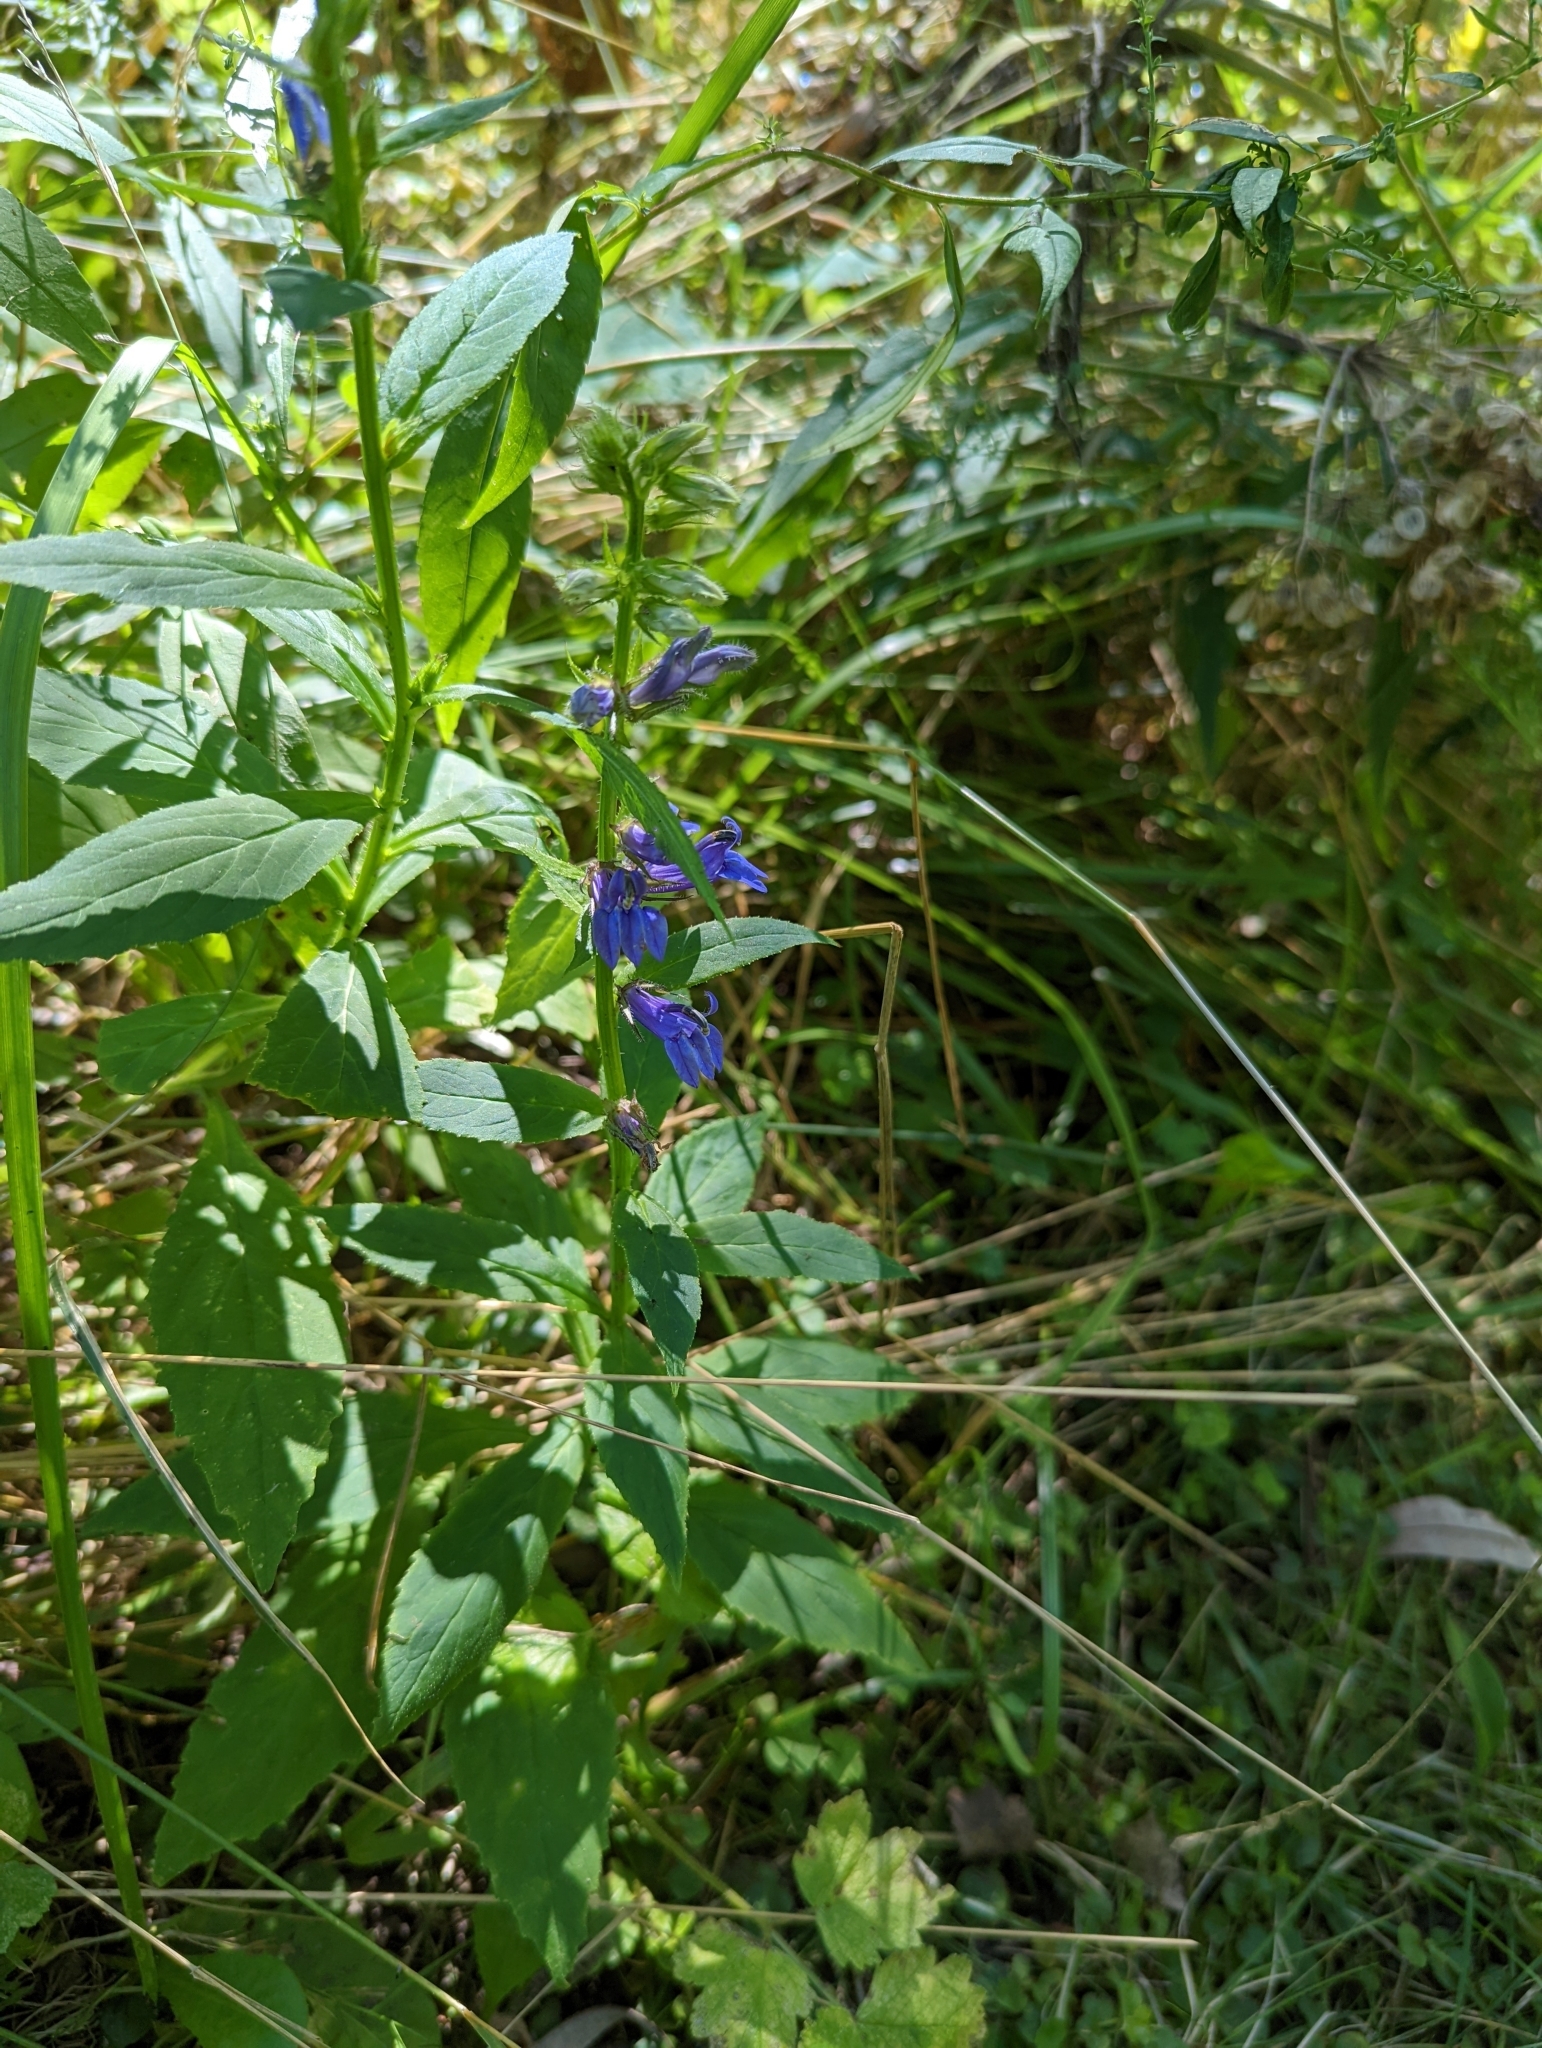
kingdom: Plantae
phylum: Tracheophyta
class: Magnoliopsida
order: Asterales
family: Campanulaceae
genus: Lobelia
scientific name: Lobelia siphilitica
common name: Great lobelia
